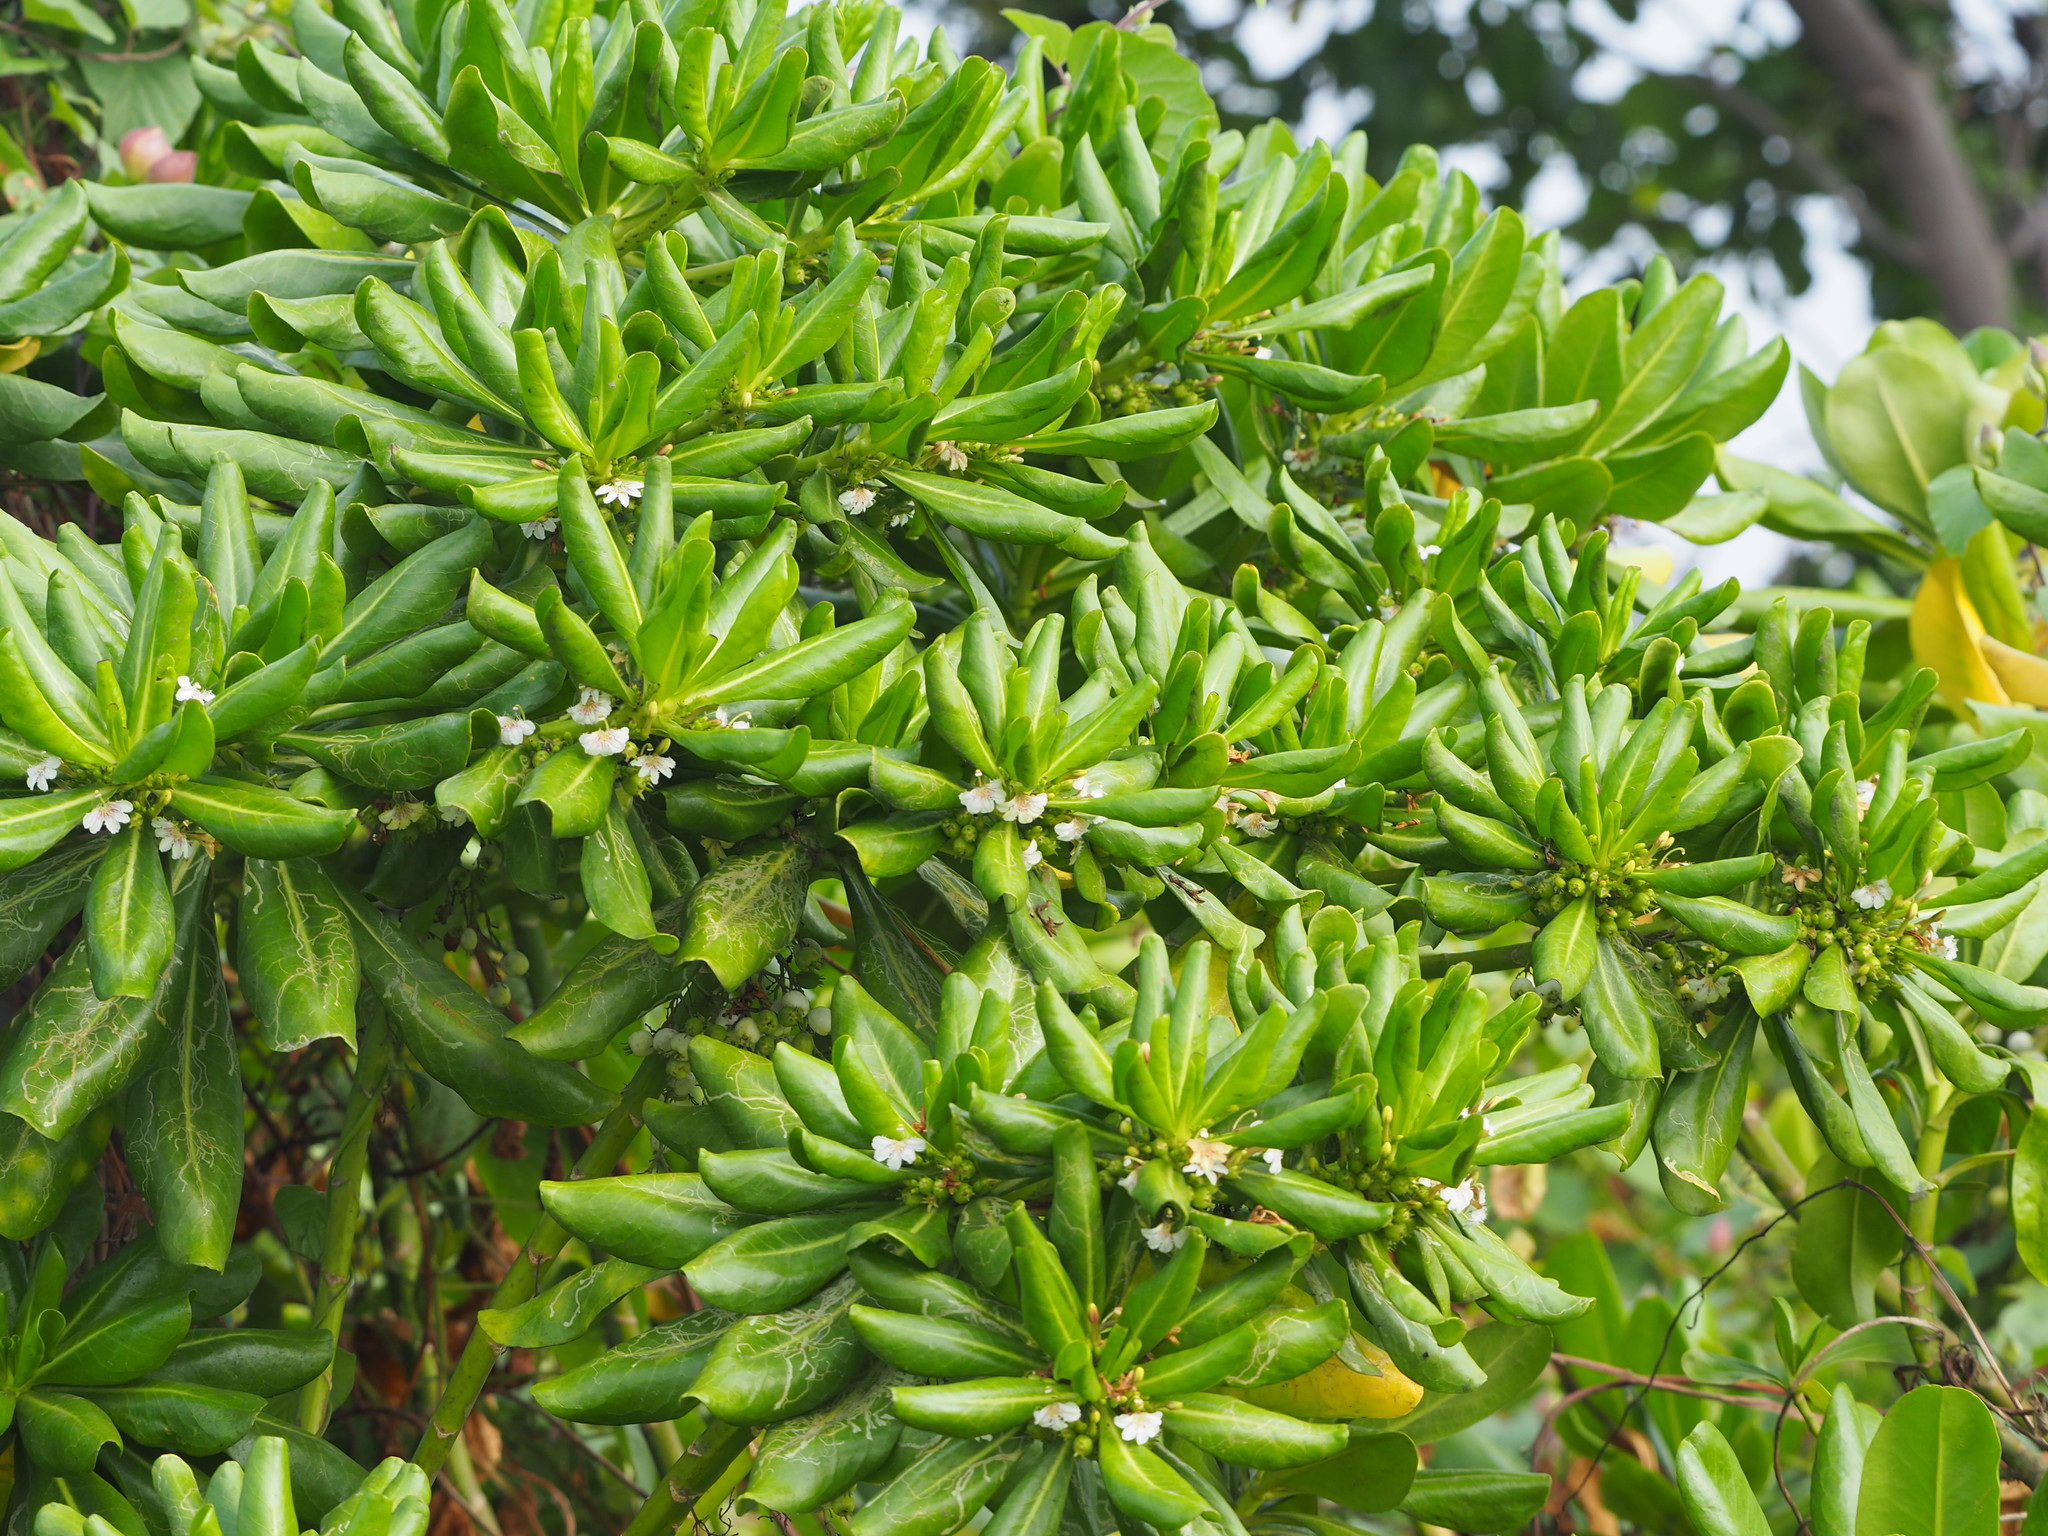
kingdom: Plantae
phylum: Tracheophyta
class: Magnoliopsida
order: Asterales
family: Goodeniaceae
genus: Scaevola
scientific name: Scaevola taccada
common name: Sea lettucetree
